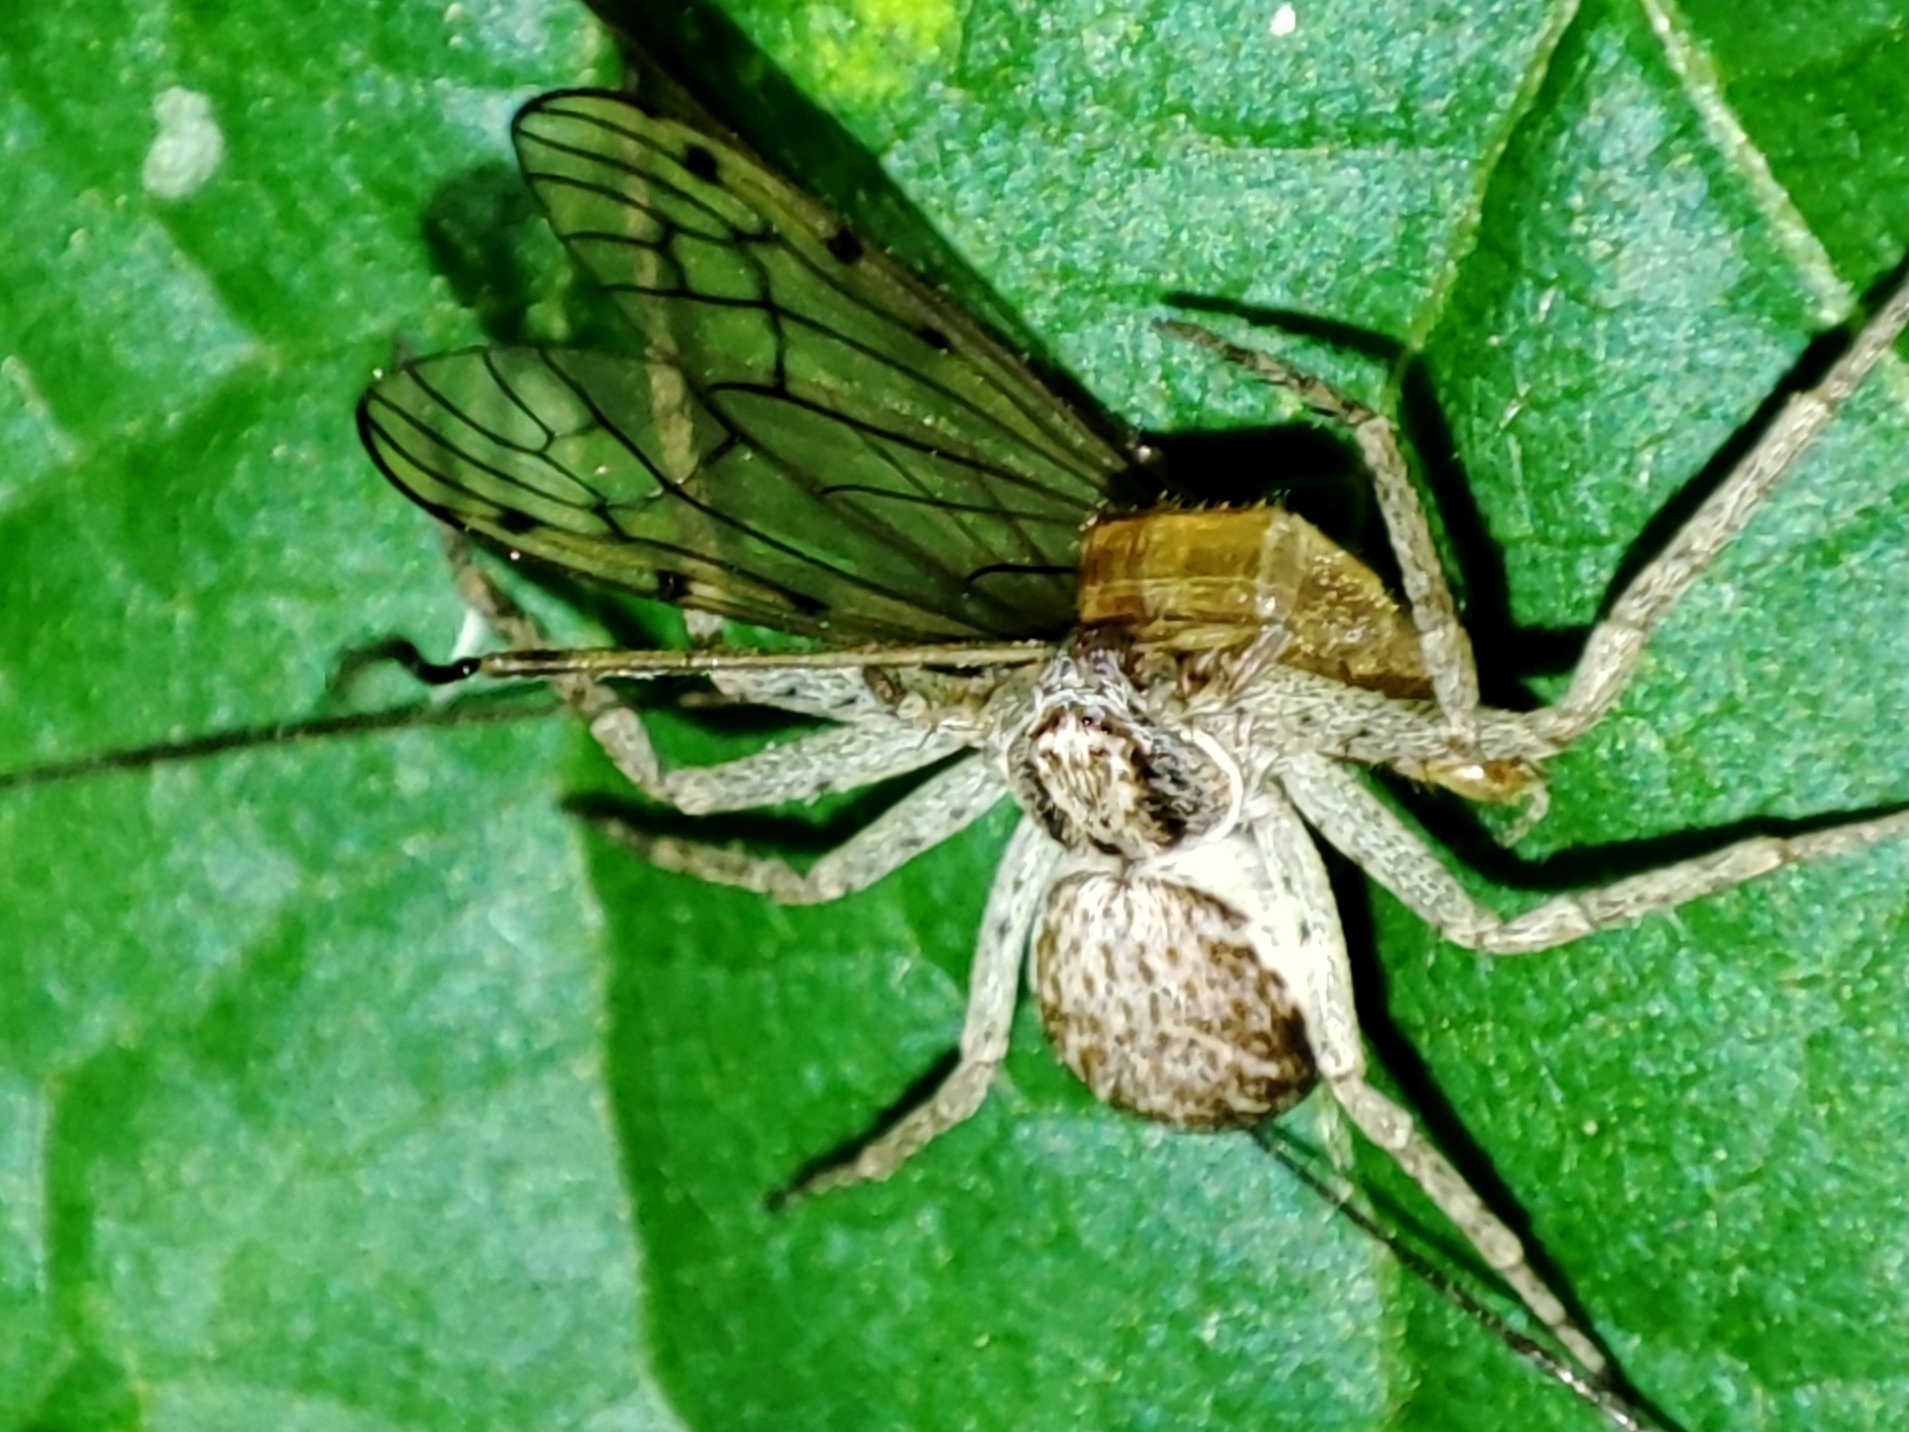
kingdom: Animalia
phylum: Arthropoda
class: Arachnida
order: Araneae
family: Philodromidae
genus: Philodromus
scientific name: Philodromus dispar
